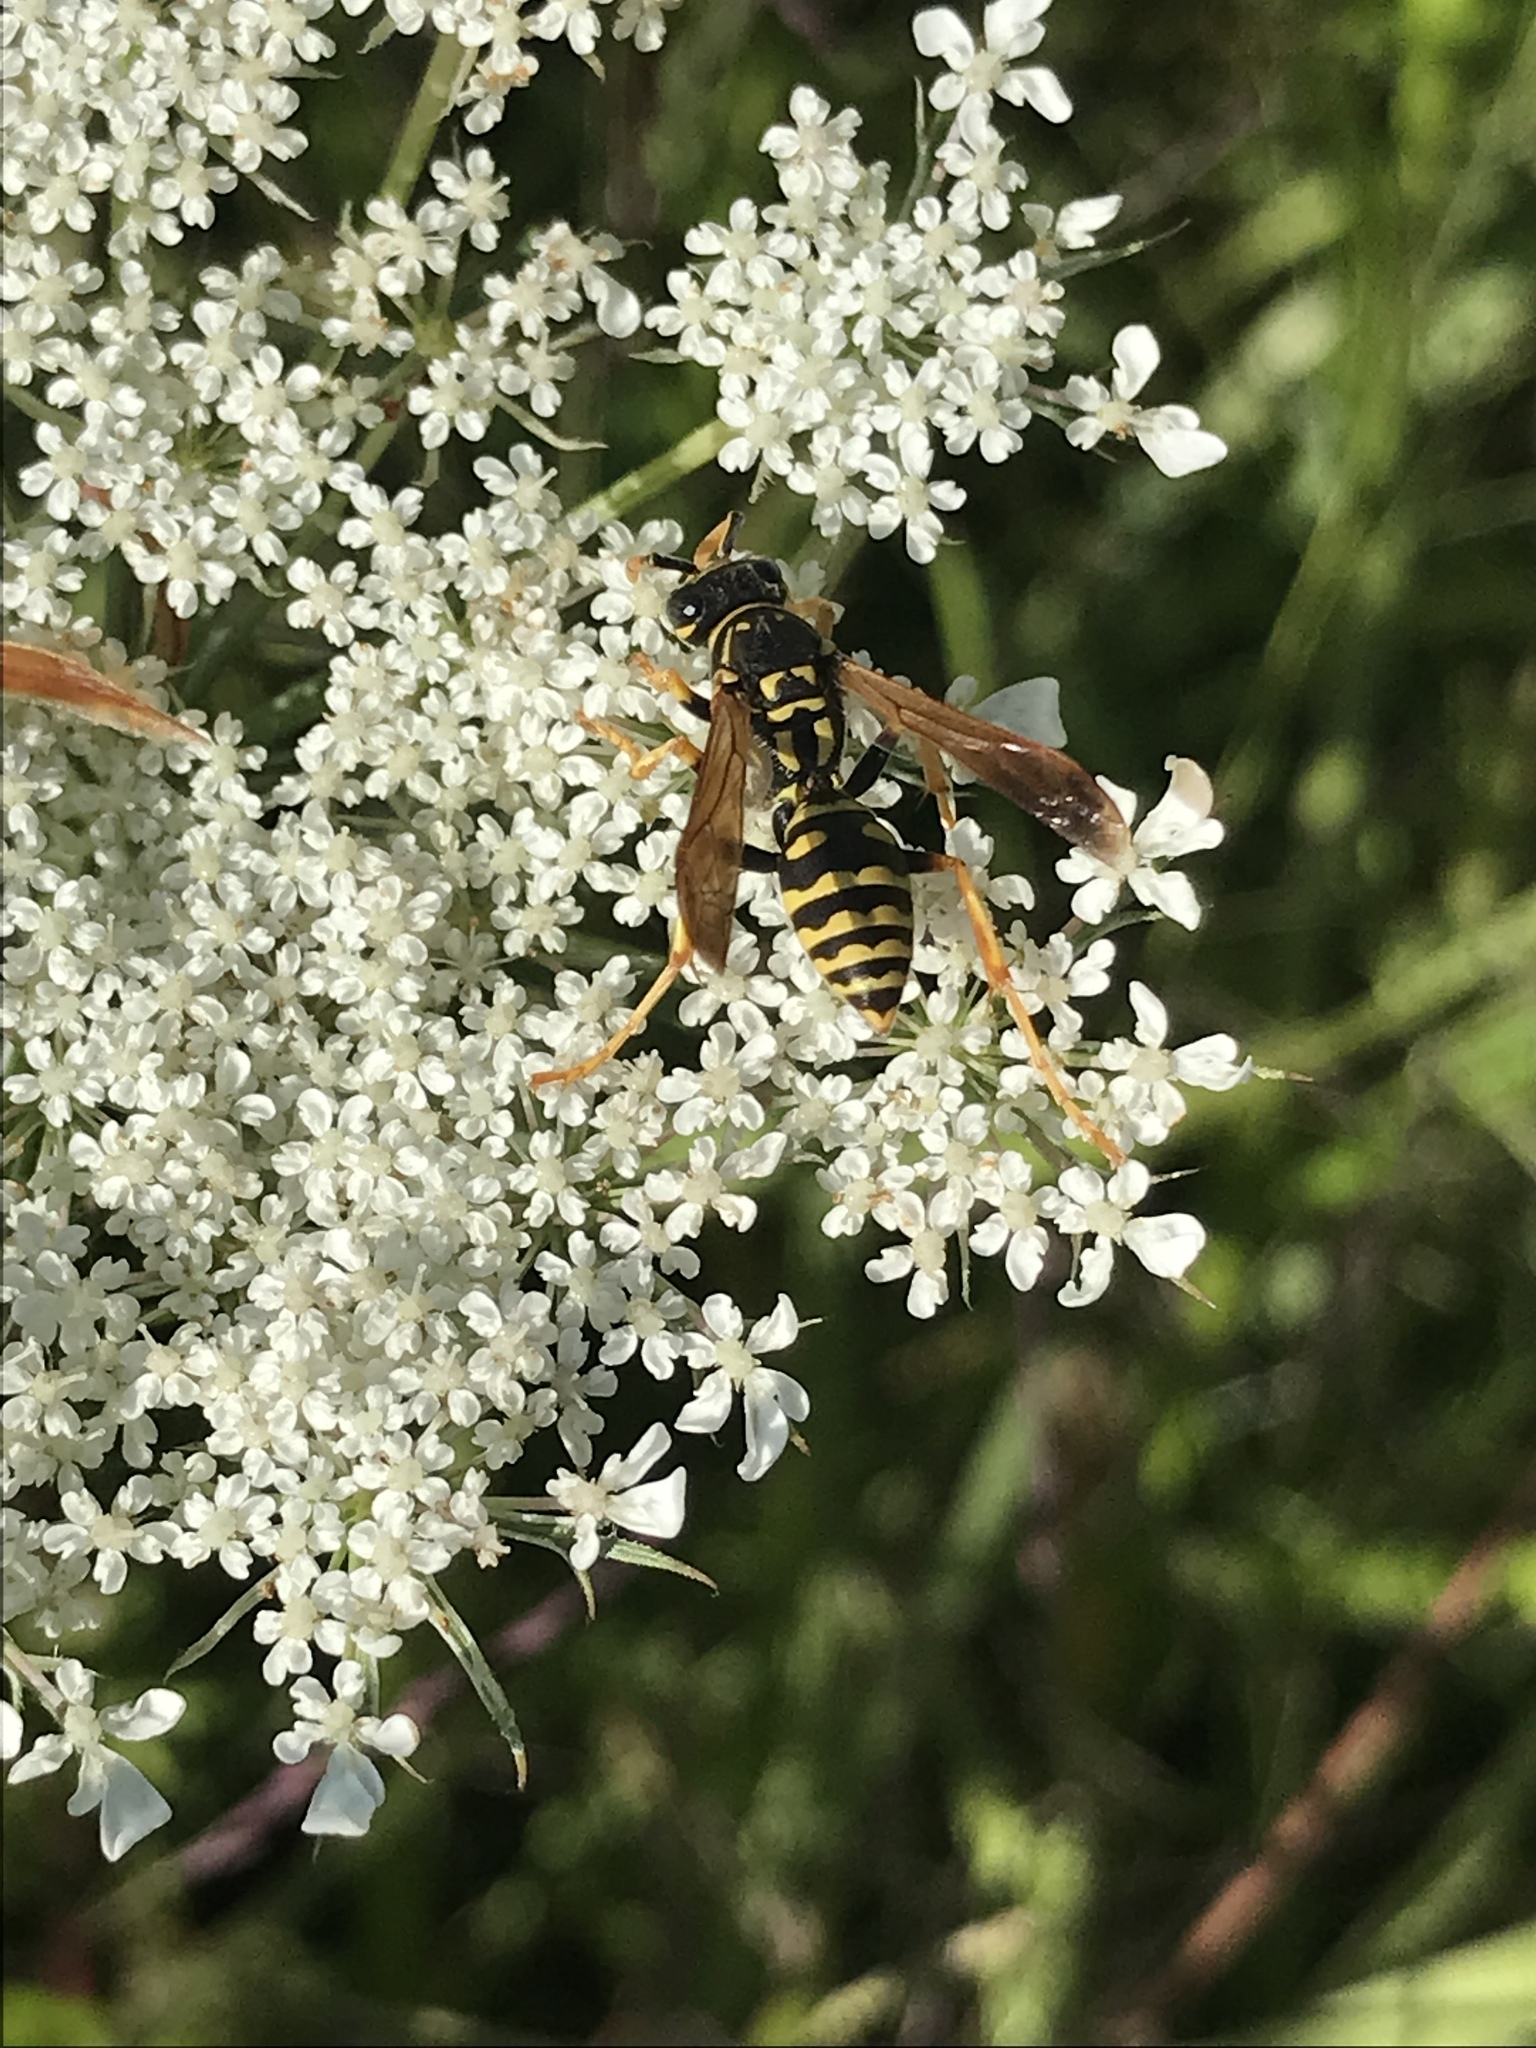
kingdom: Animalia
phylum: Arthropoda
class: Insecta
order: Hymenoptera
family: Eumenidae
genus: Polistes
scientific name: Polistes dominula
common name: Paper wasp
